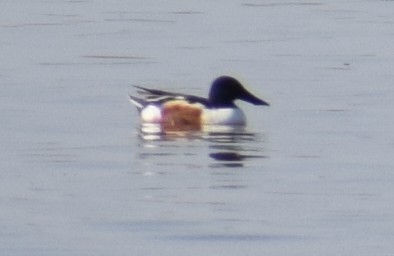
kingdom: Animalia
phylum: Chordata
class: Aves
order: Anseriformes
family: Anatidae
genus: Spatula
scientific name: Spatula clypeata
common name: Northern shoveler
